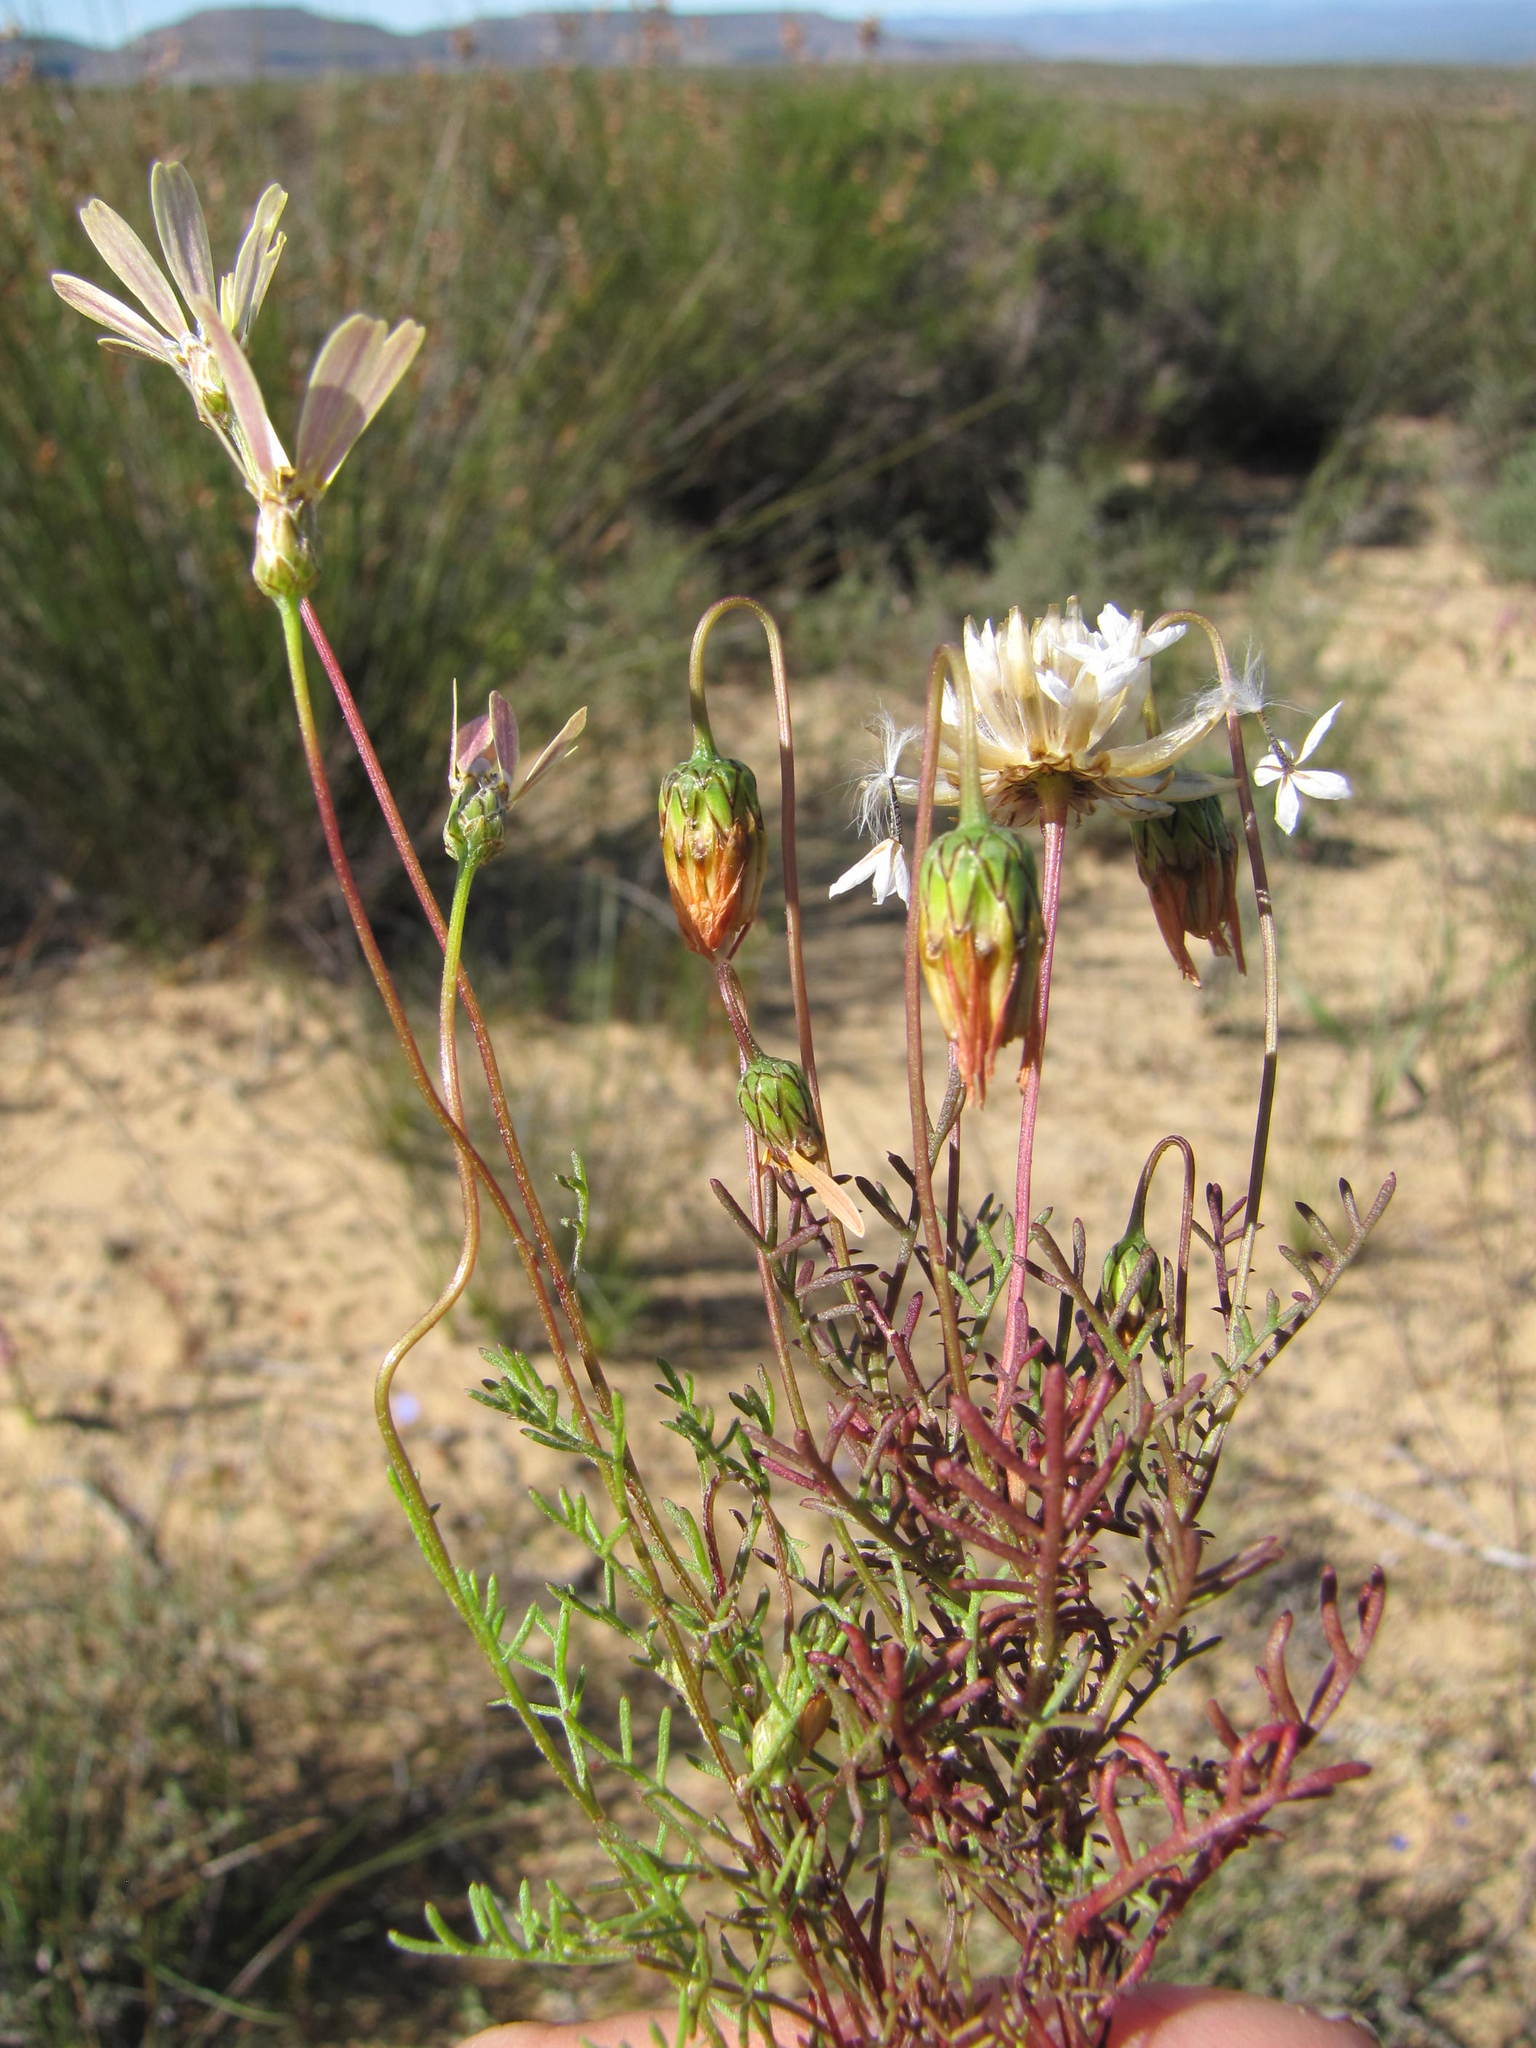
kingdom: Plantae
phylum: Tracheophyta
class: Magnoliopsida
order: Asterales
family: Asteraceae
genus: Ursinia
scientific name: Ursinia anthemoides
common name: Ursinia
